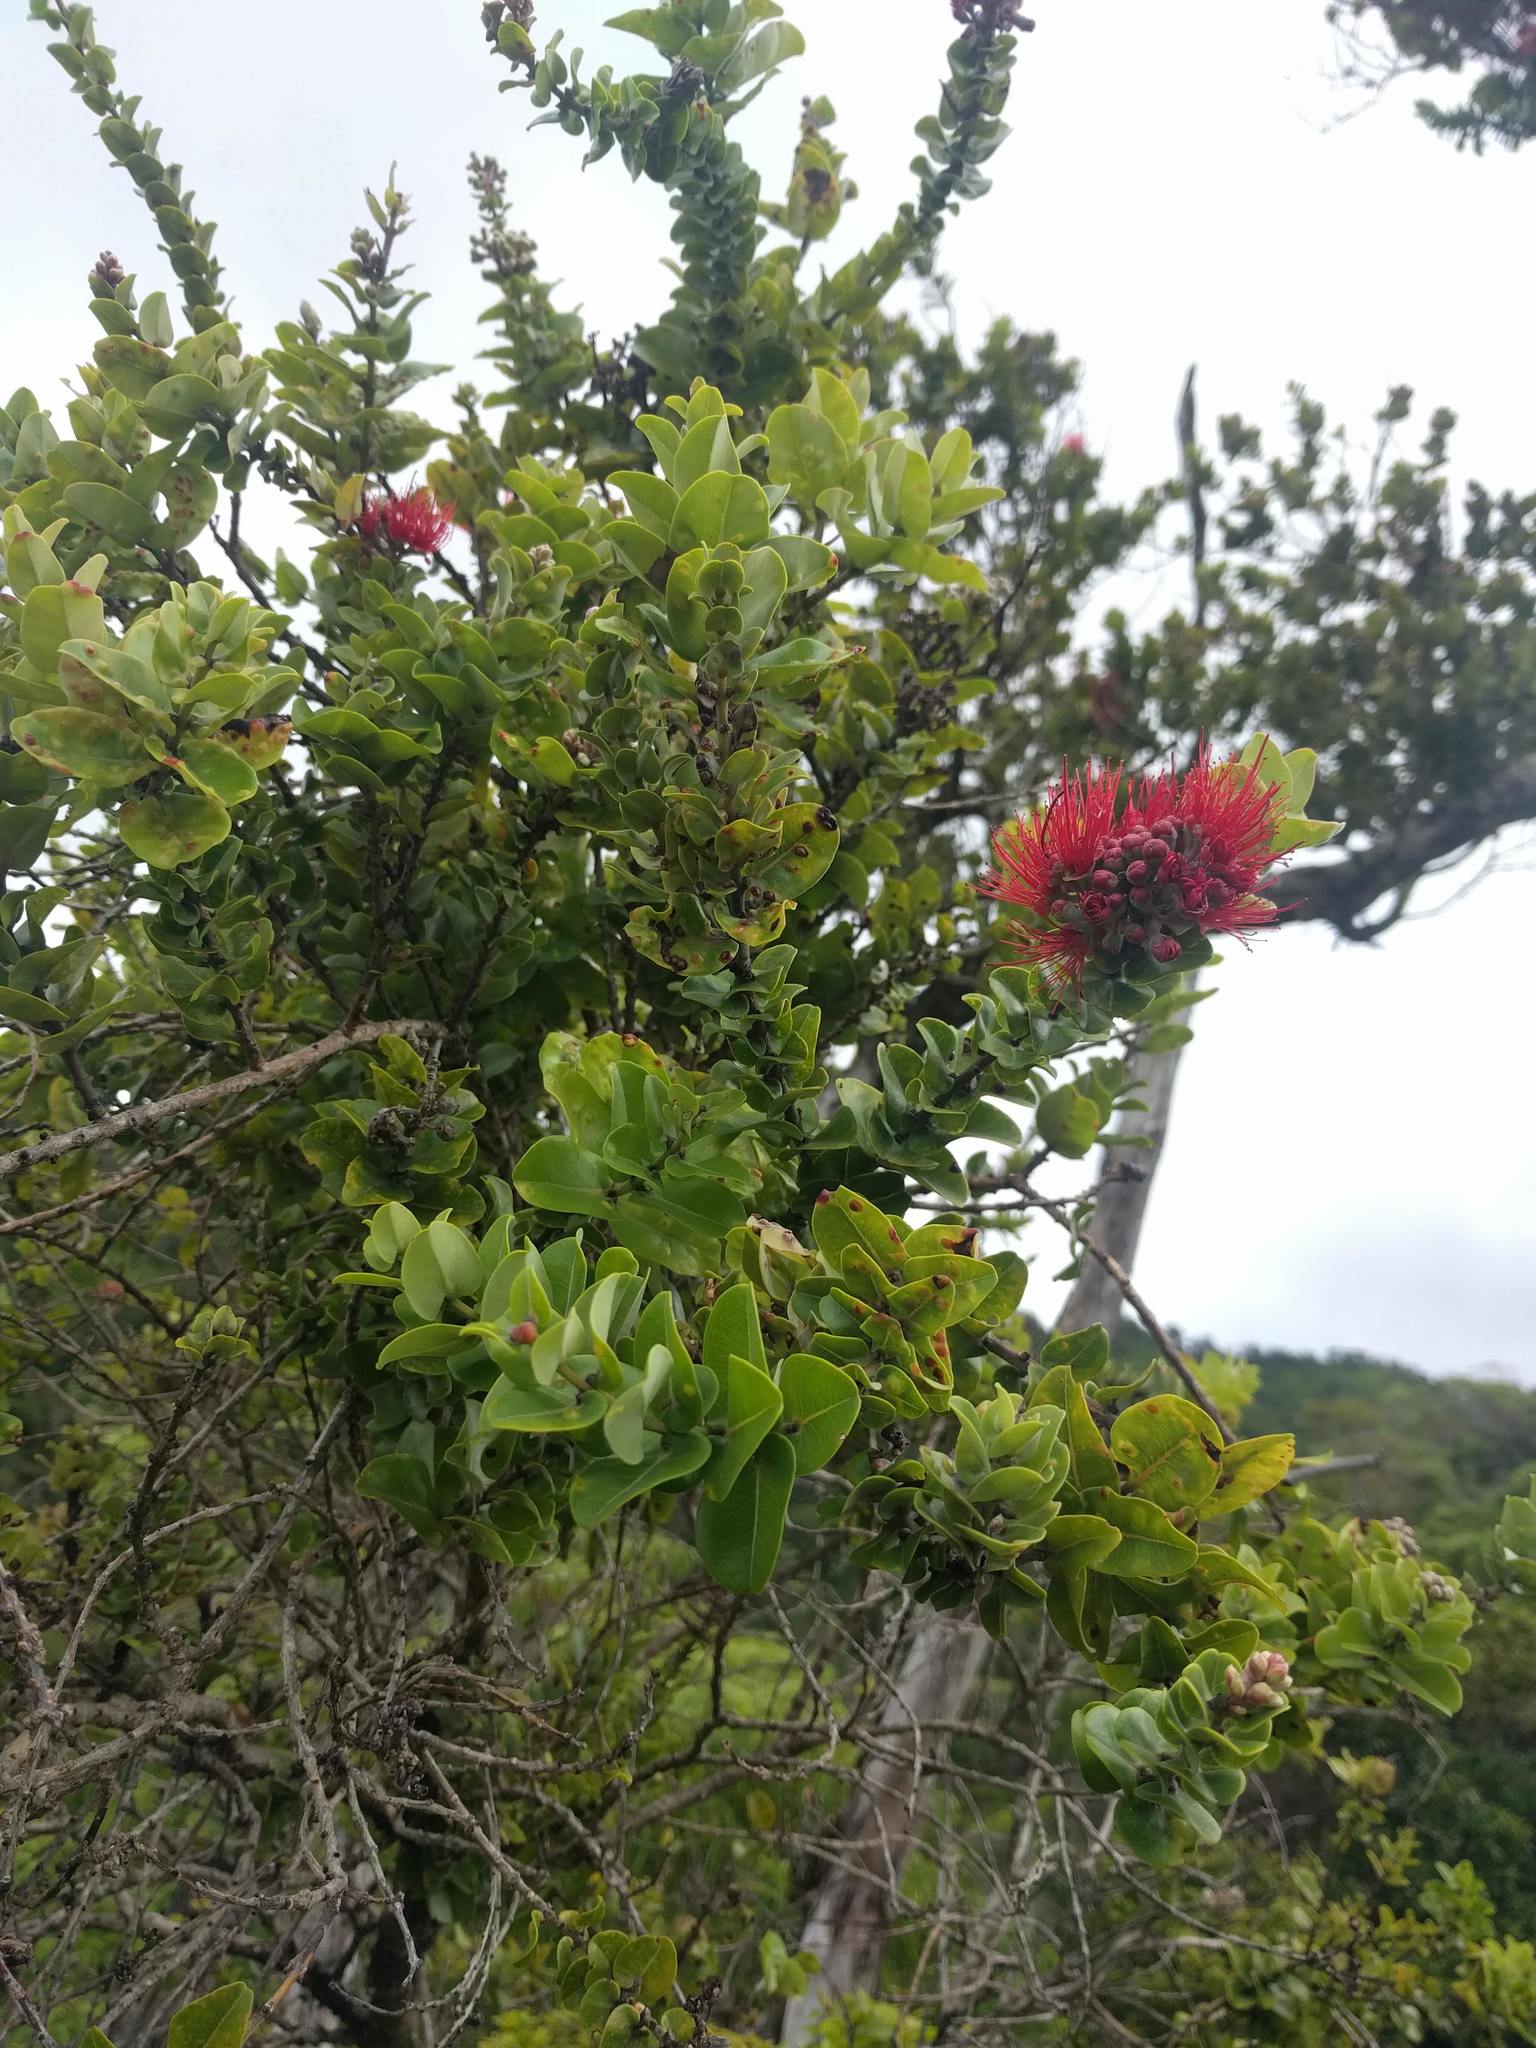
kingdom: Plantae
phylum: Tracheophyta
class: Magnoliopsida
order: Myrtales
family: Myrtaceae
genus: Metrosideros
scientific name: Metrosideros polymorpha
